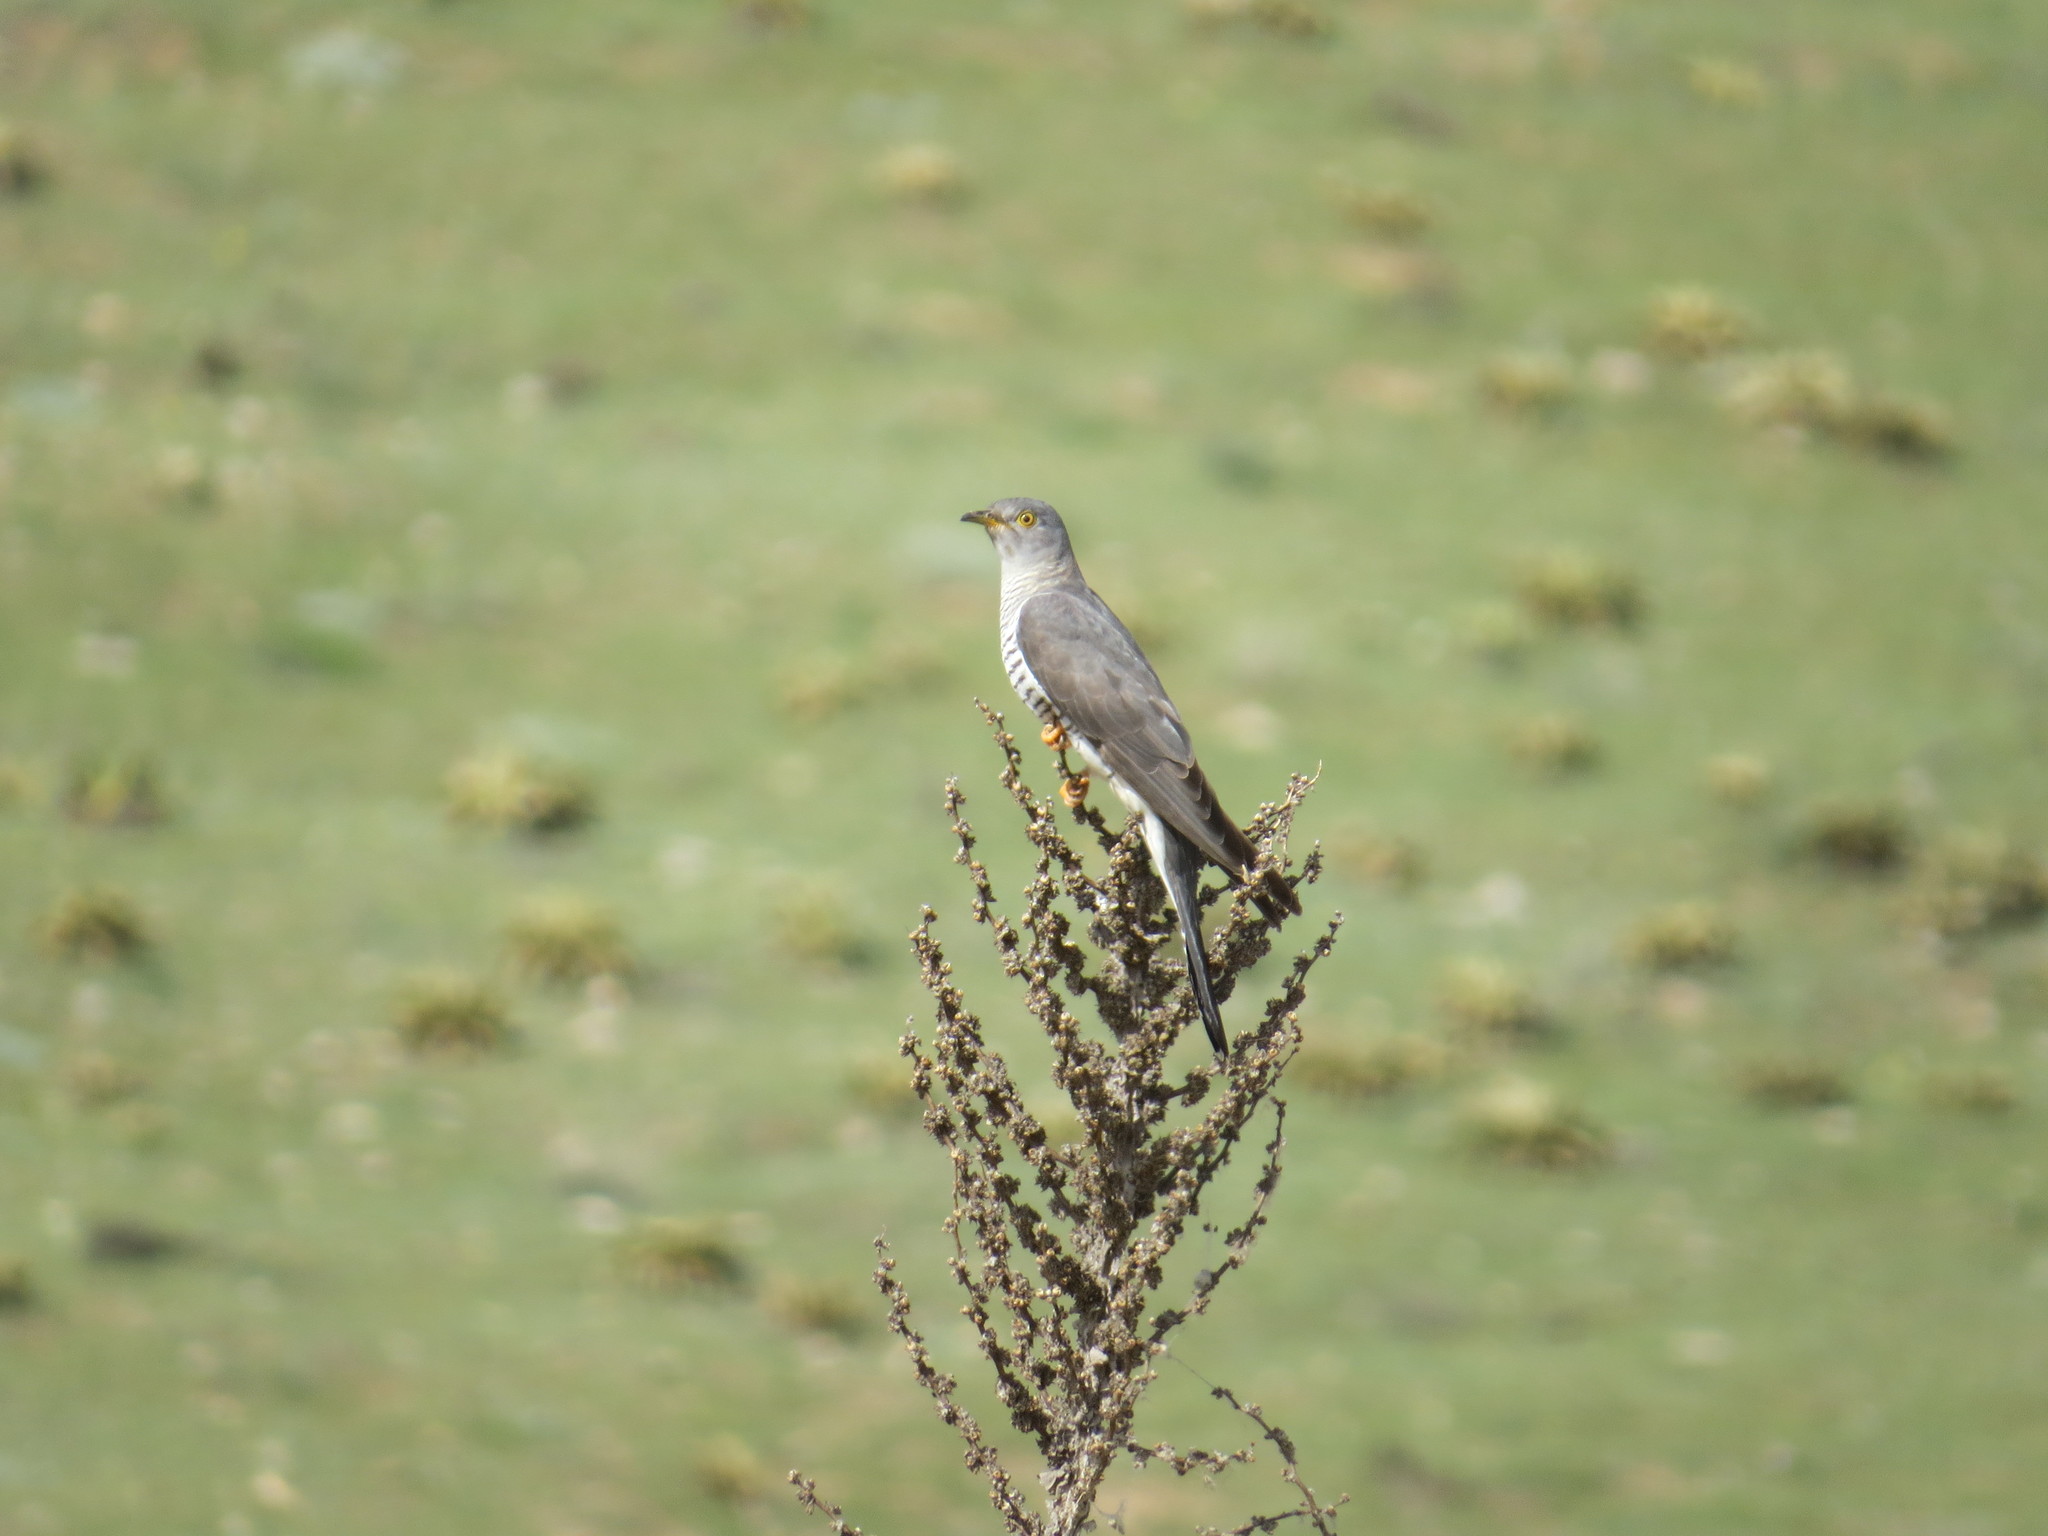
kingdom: Animalia
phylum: Chordata
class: Aves
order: Cuculiformes
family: Cuculidae
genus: Cuculus
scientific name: Cuculus canorus
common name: Common cuckoo
